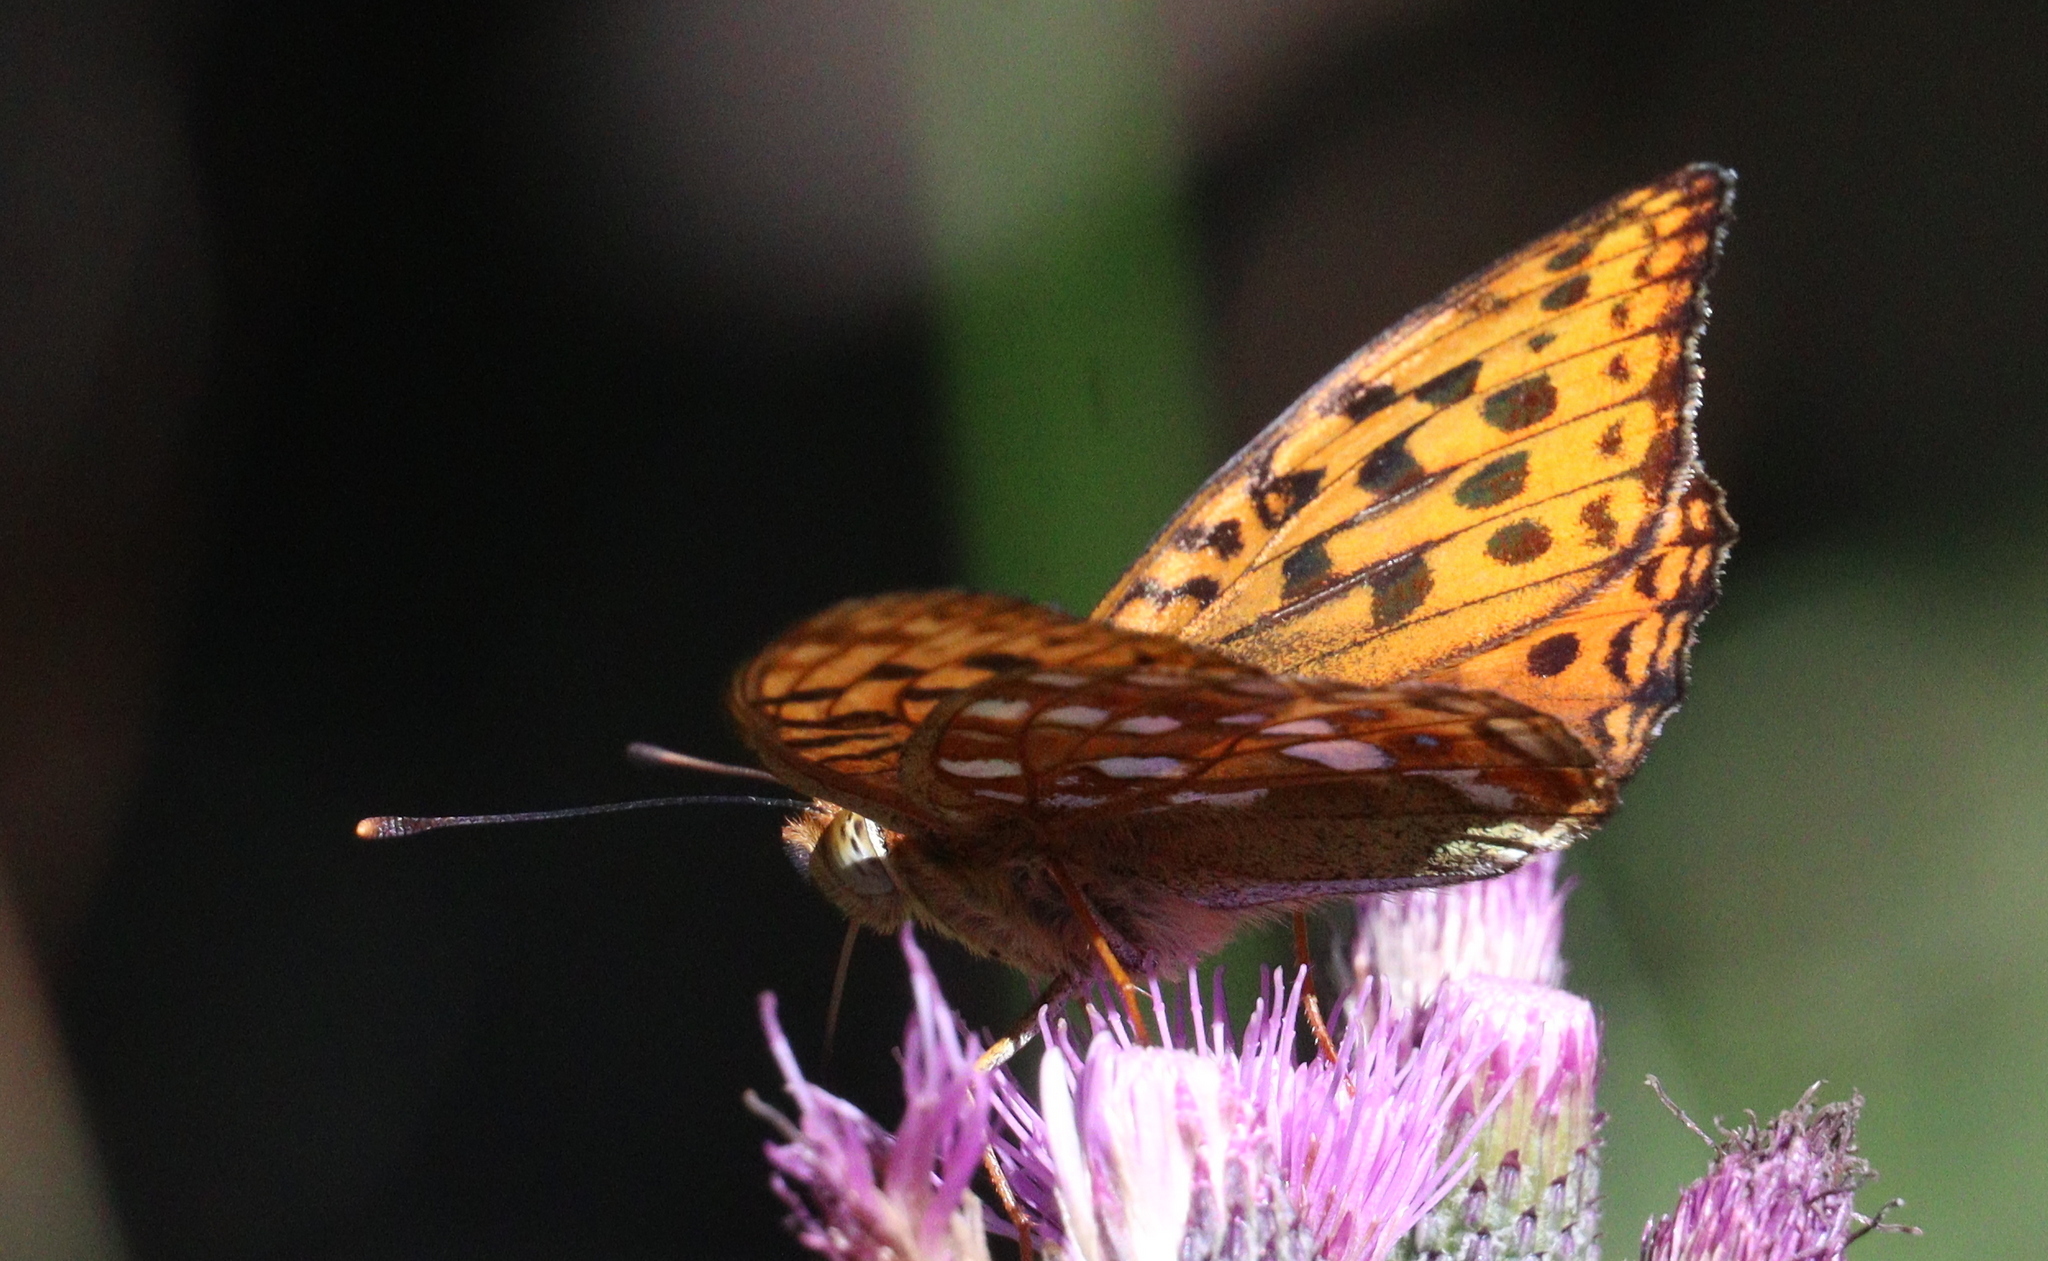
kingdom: Animalia
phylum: Arthropoda
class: Insecta
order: Lepidoptera
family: Nymphalidae
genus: Fabriciana
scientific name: Fabriciana adippe
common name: High brown fritillary
